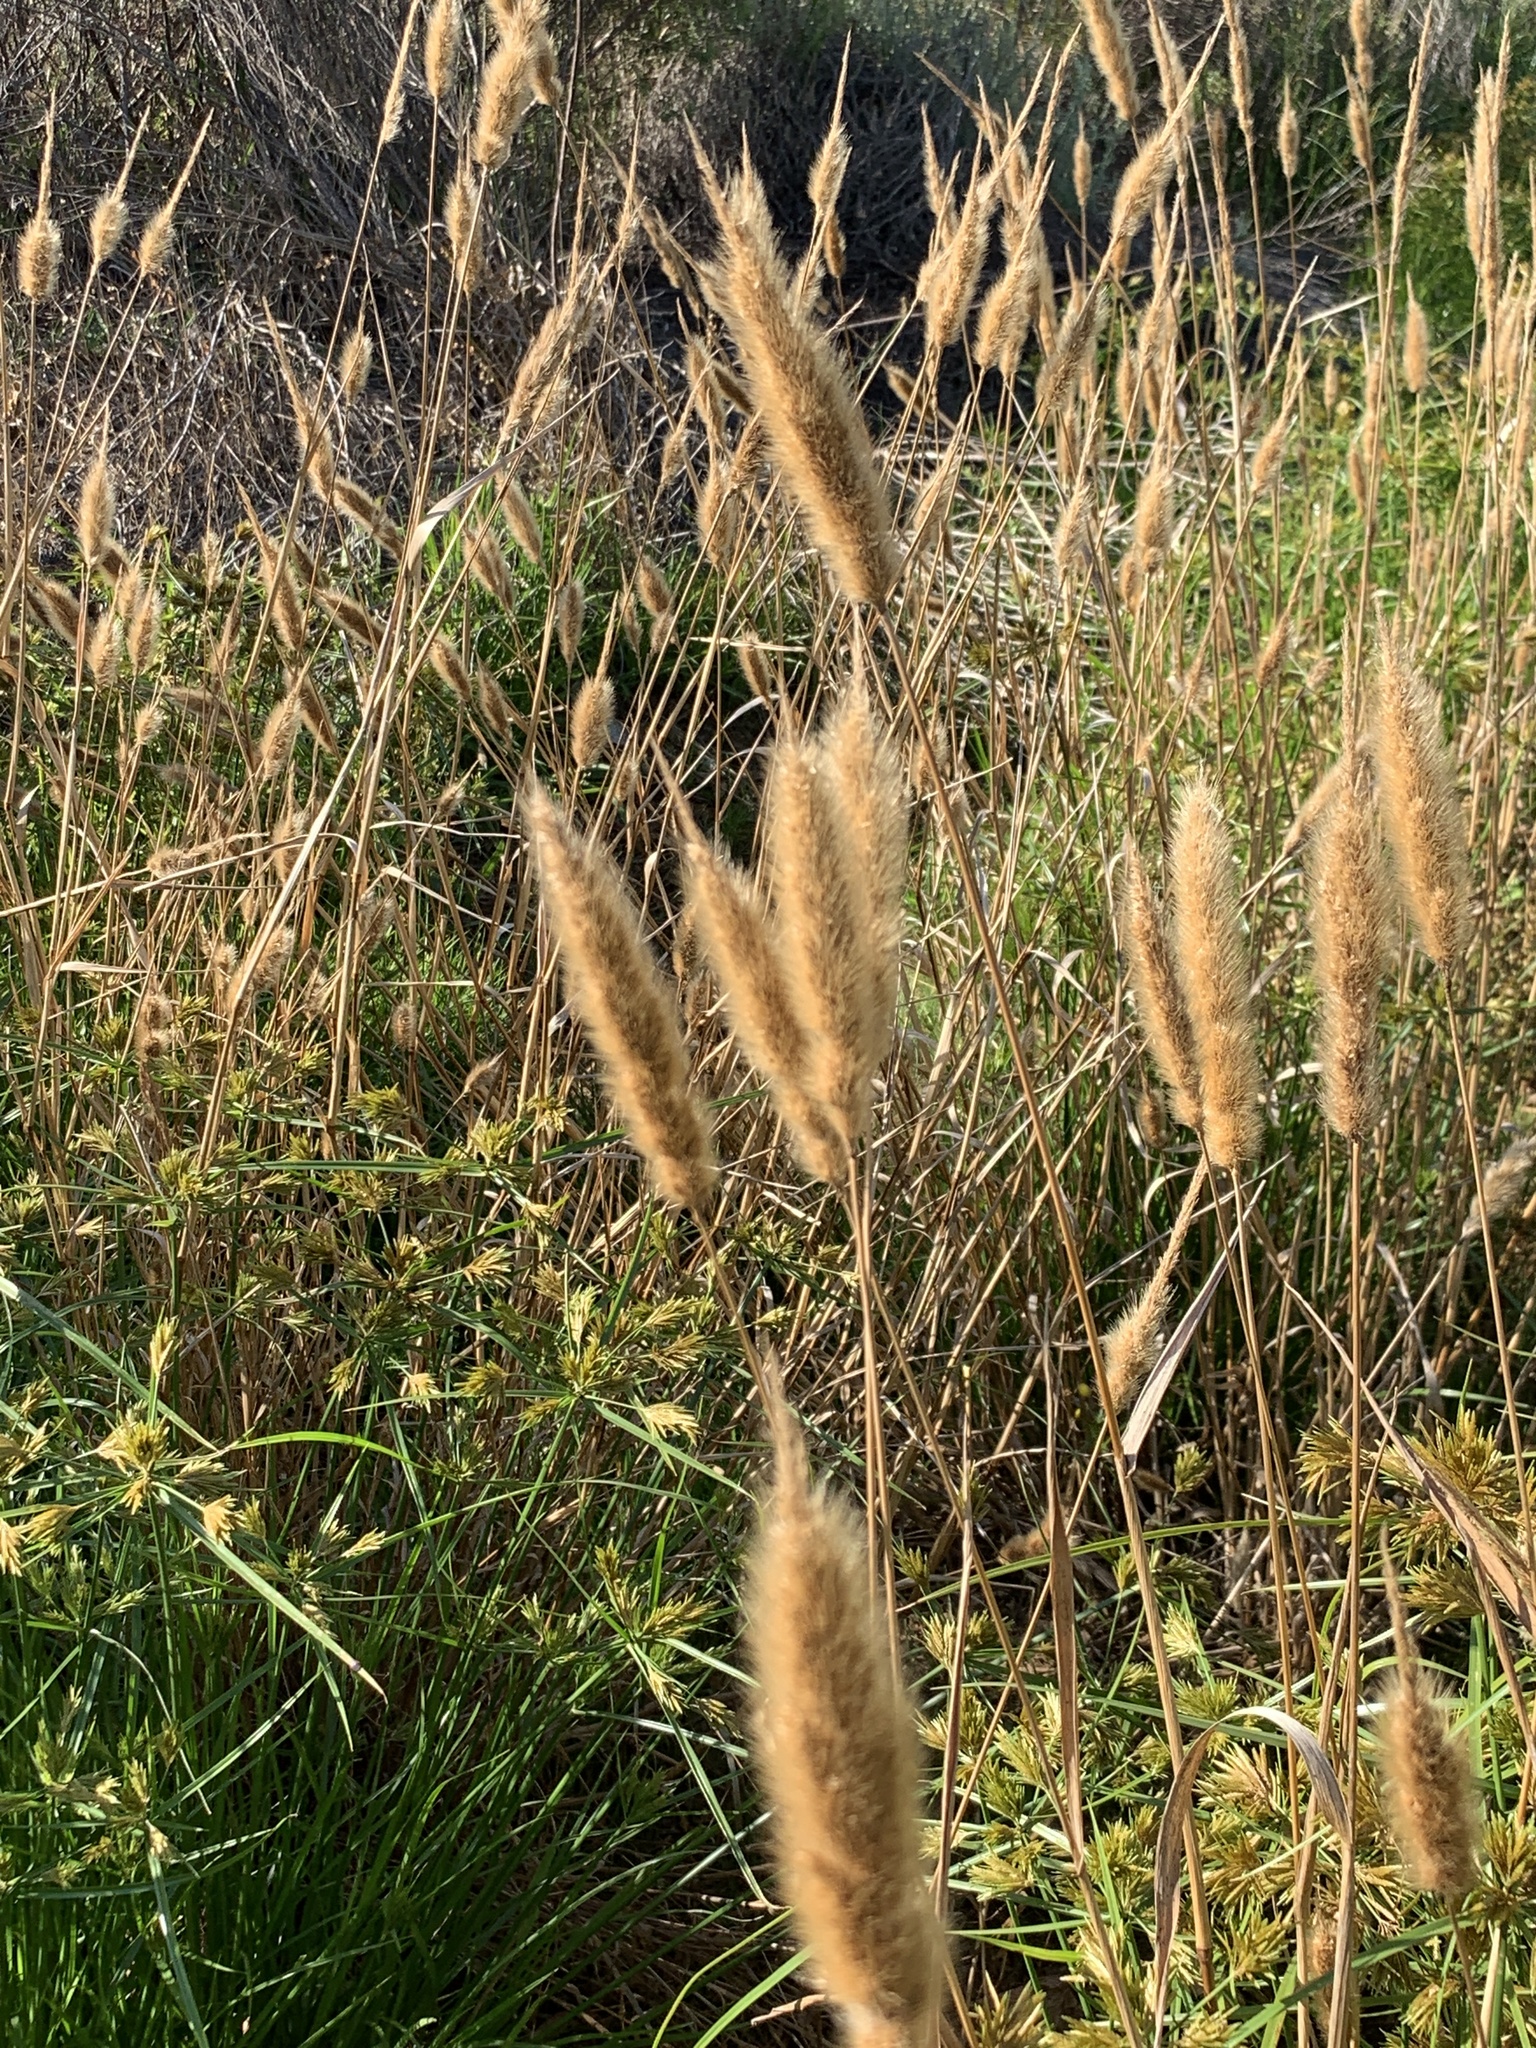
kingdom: Plantae
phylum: Tracheophyta
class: Liliopsida
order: Poales
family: Poaceae
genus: Polypogon
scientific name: Polypogon monspeliensis
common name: Annual rabbitsfoot grass
